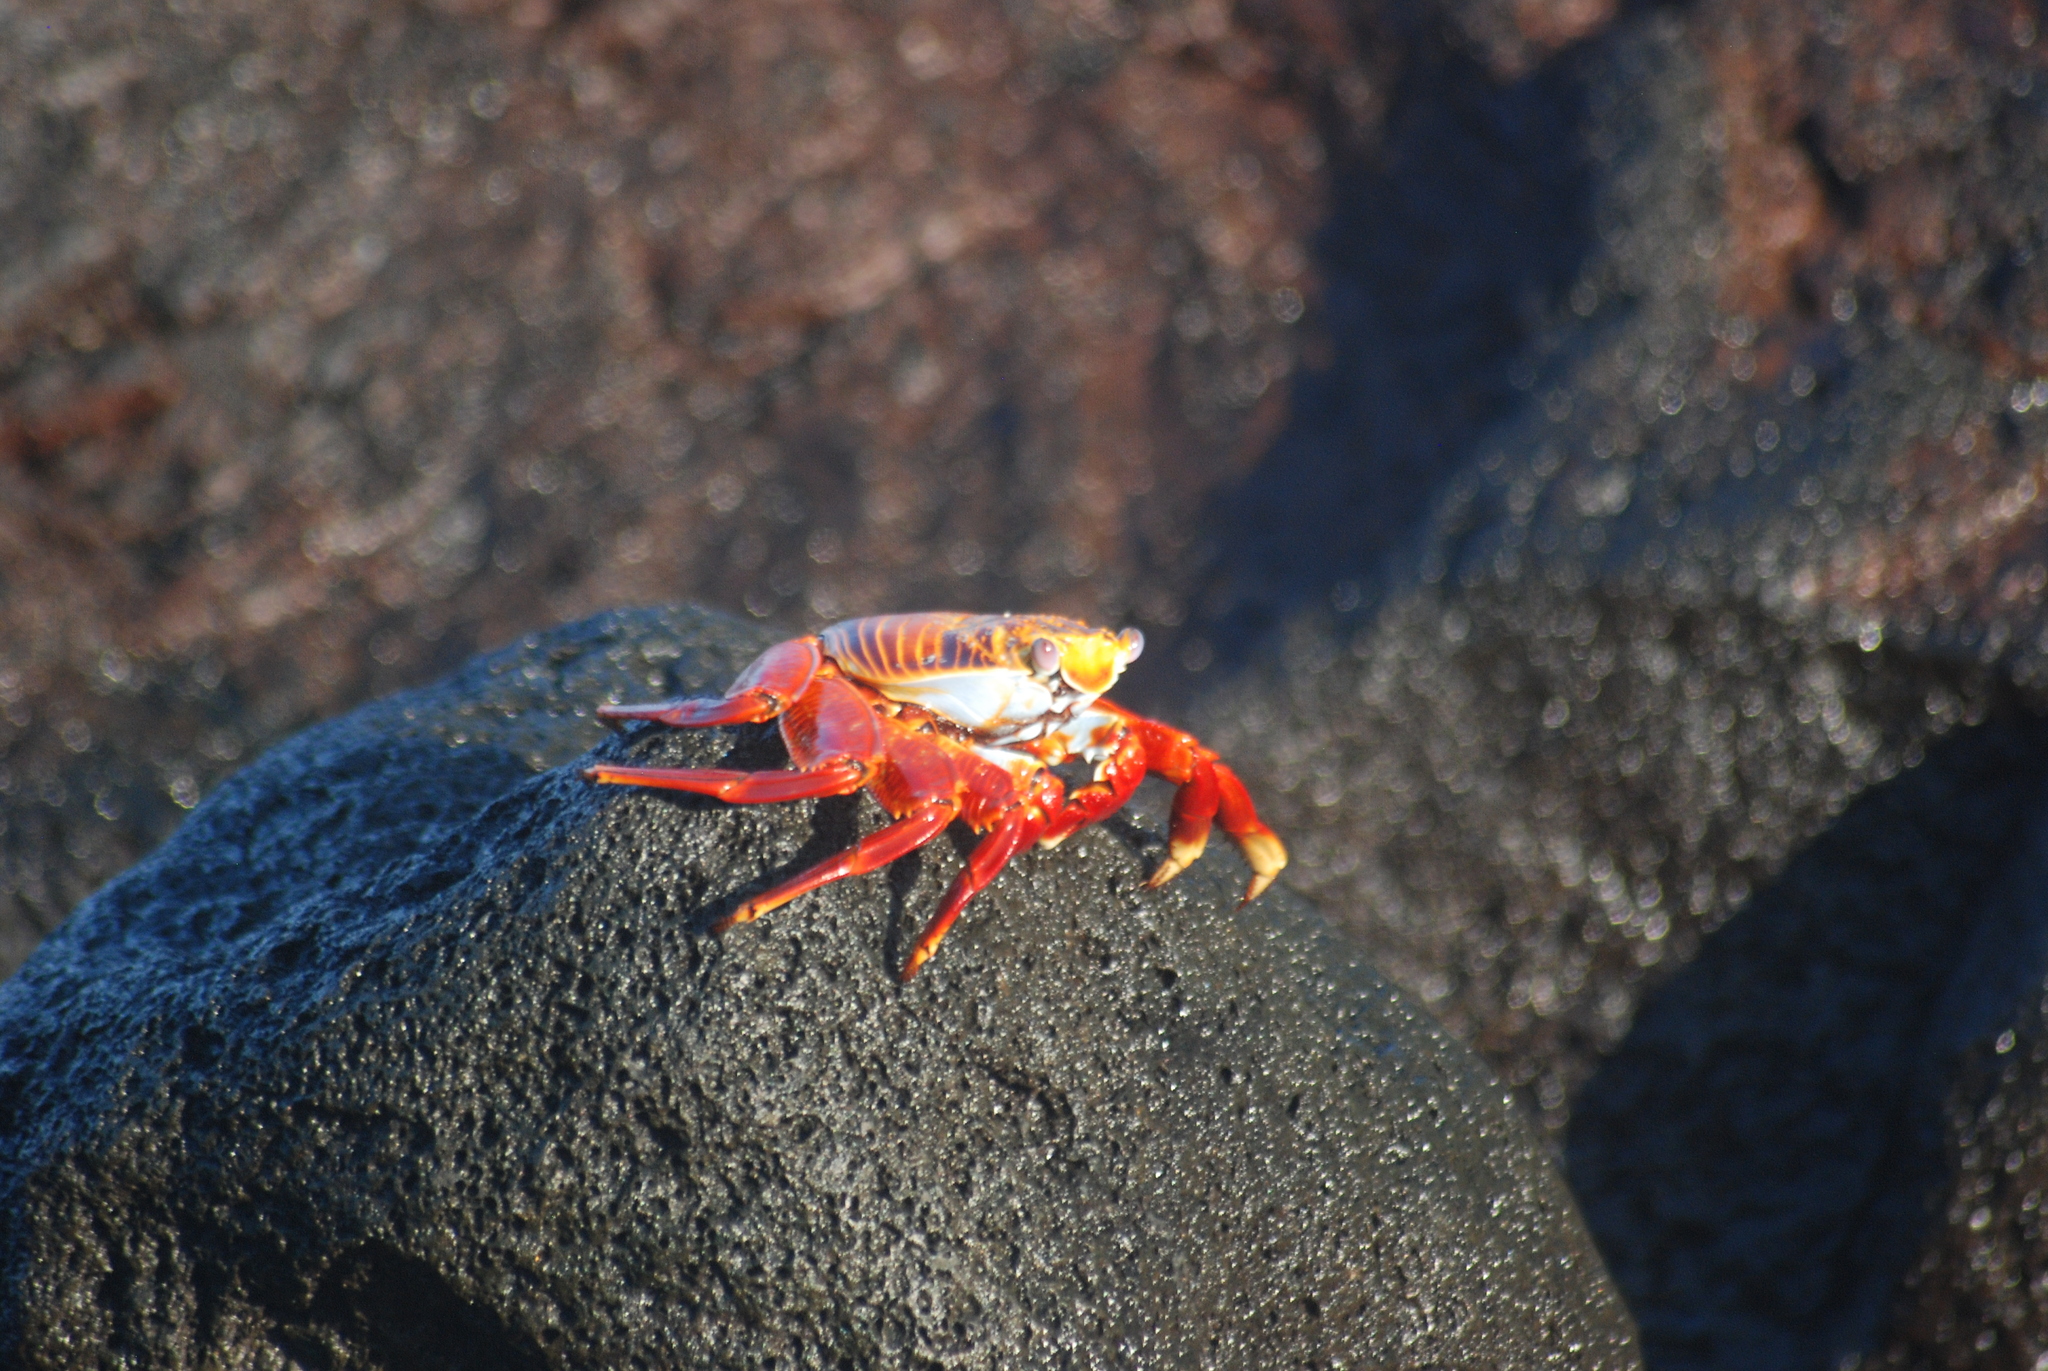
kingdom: Animalia
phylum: Arthropoda
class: Malacostraca
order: Decapoda
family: Grapsidae
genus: Grapsus
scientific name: Grapsus grapsus
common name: Sally lightfoot
